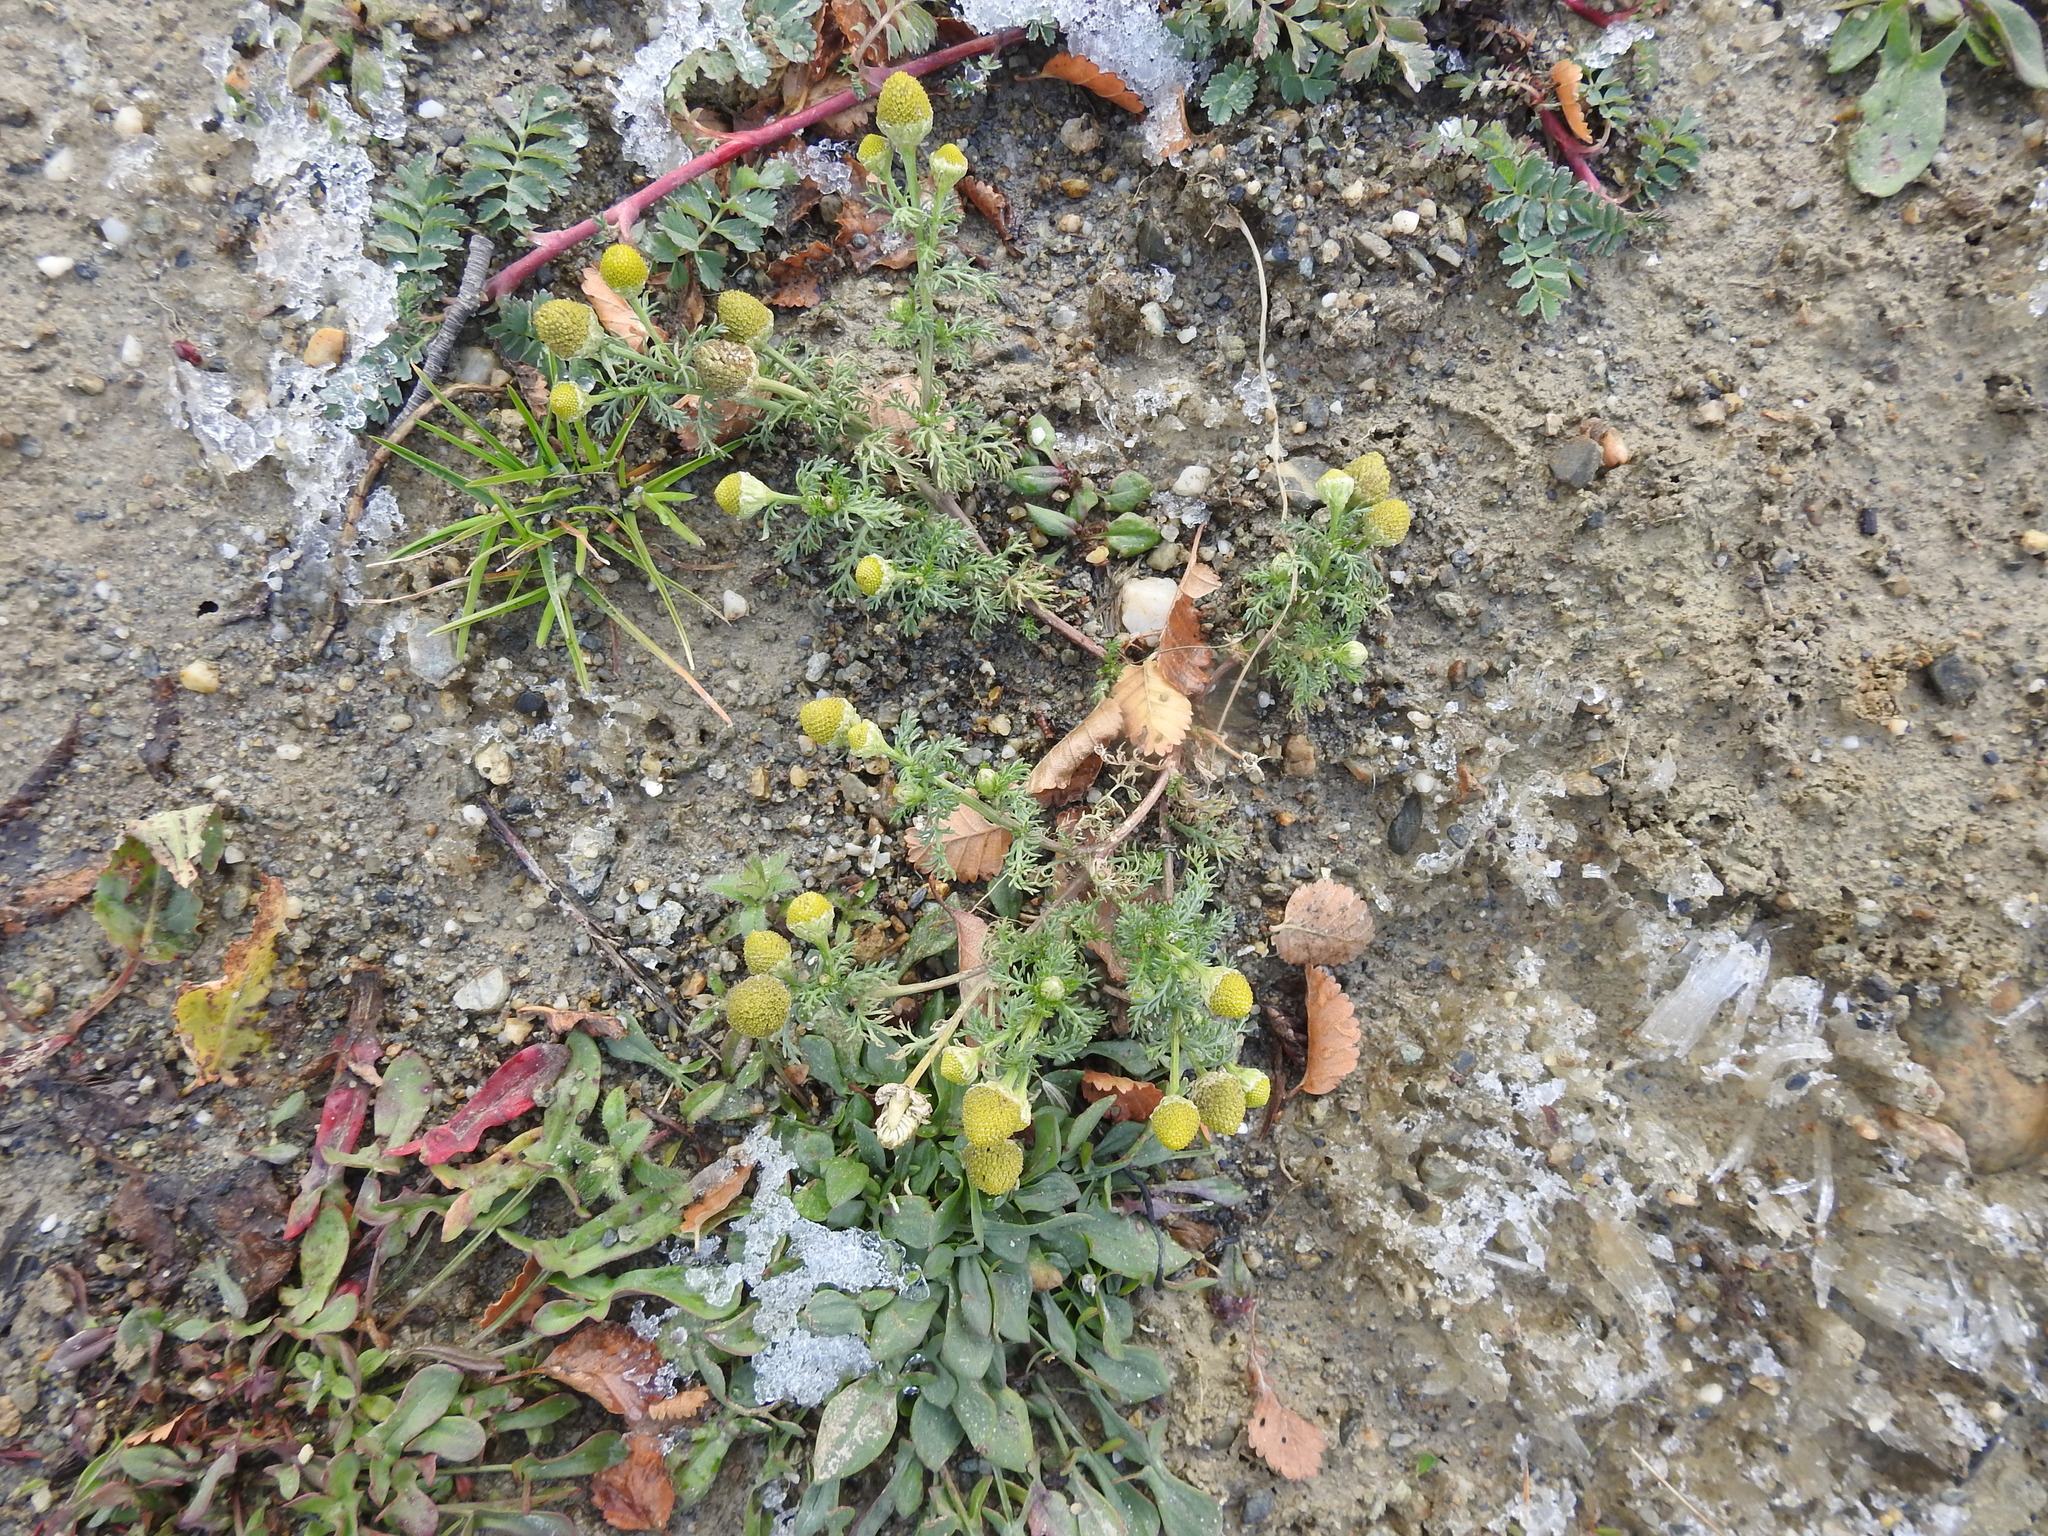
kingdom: Plantae
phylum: Tracheophyta
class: Magnoliopsida
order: Asterales
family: Asteraceae
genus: Matricaria
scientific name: Matricaria discoidea
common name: Disc mayweed
